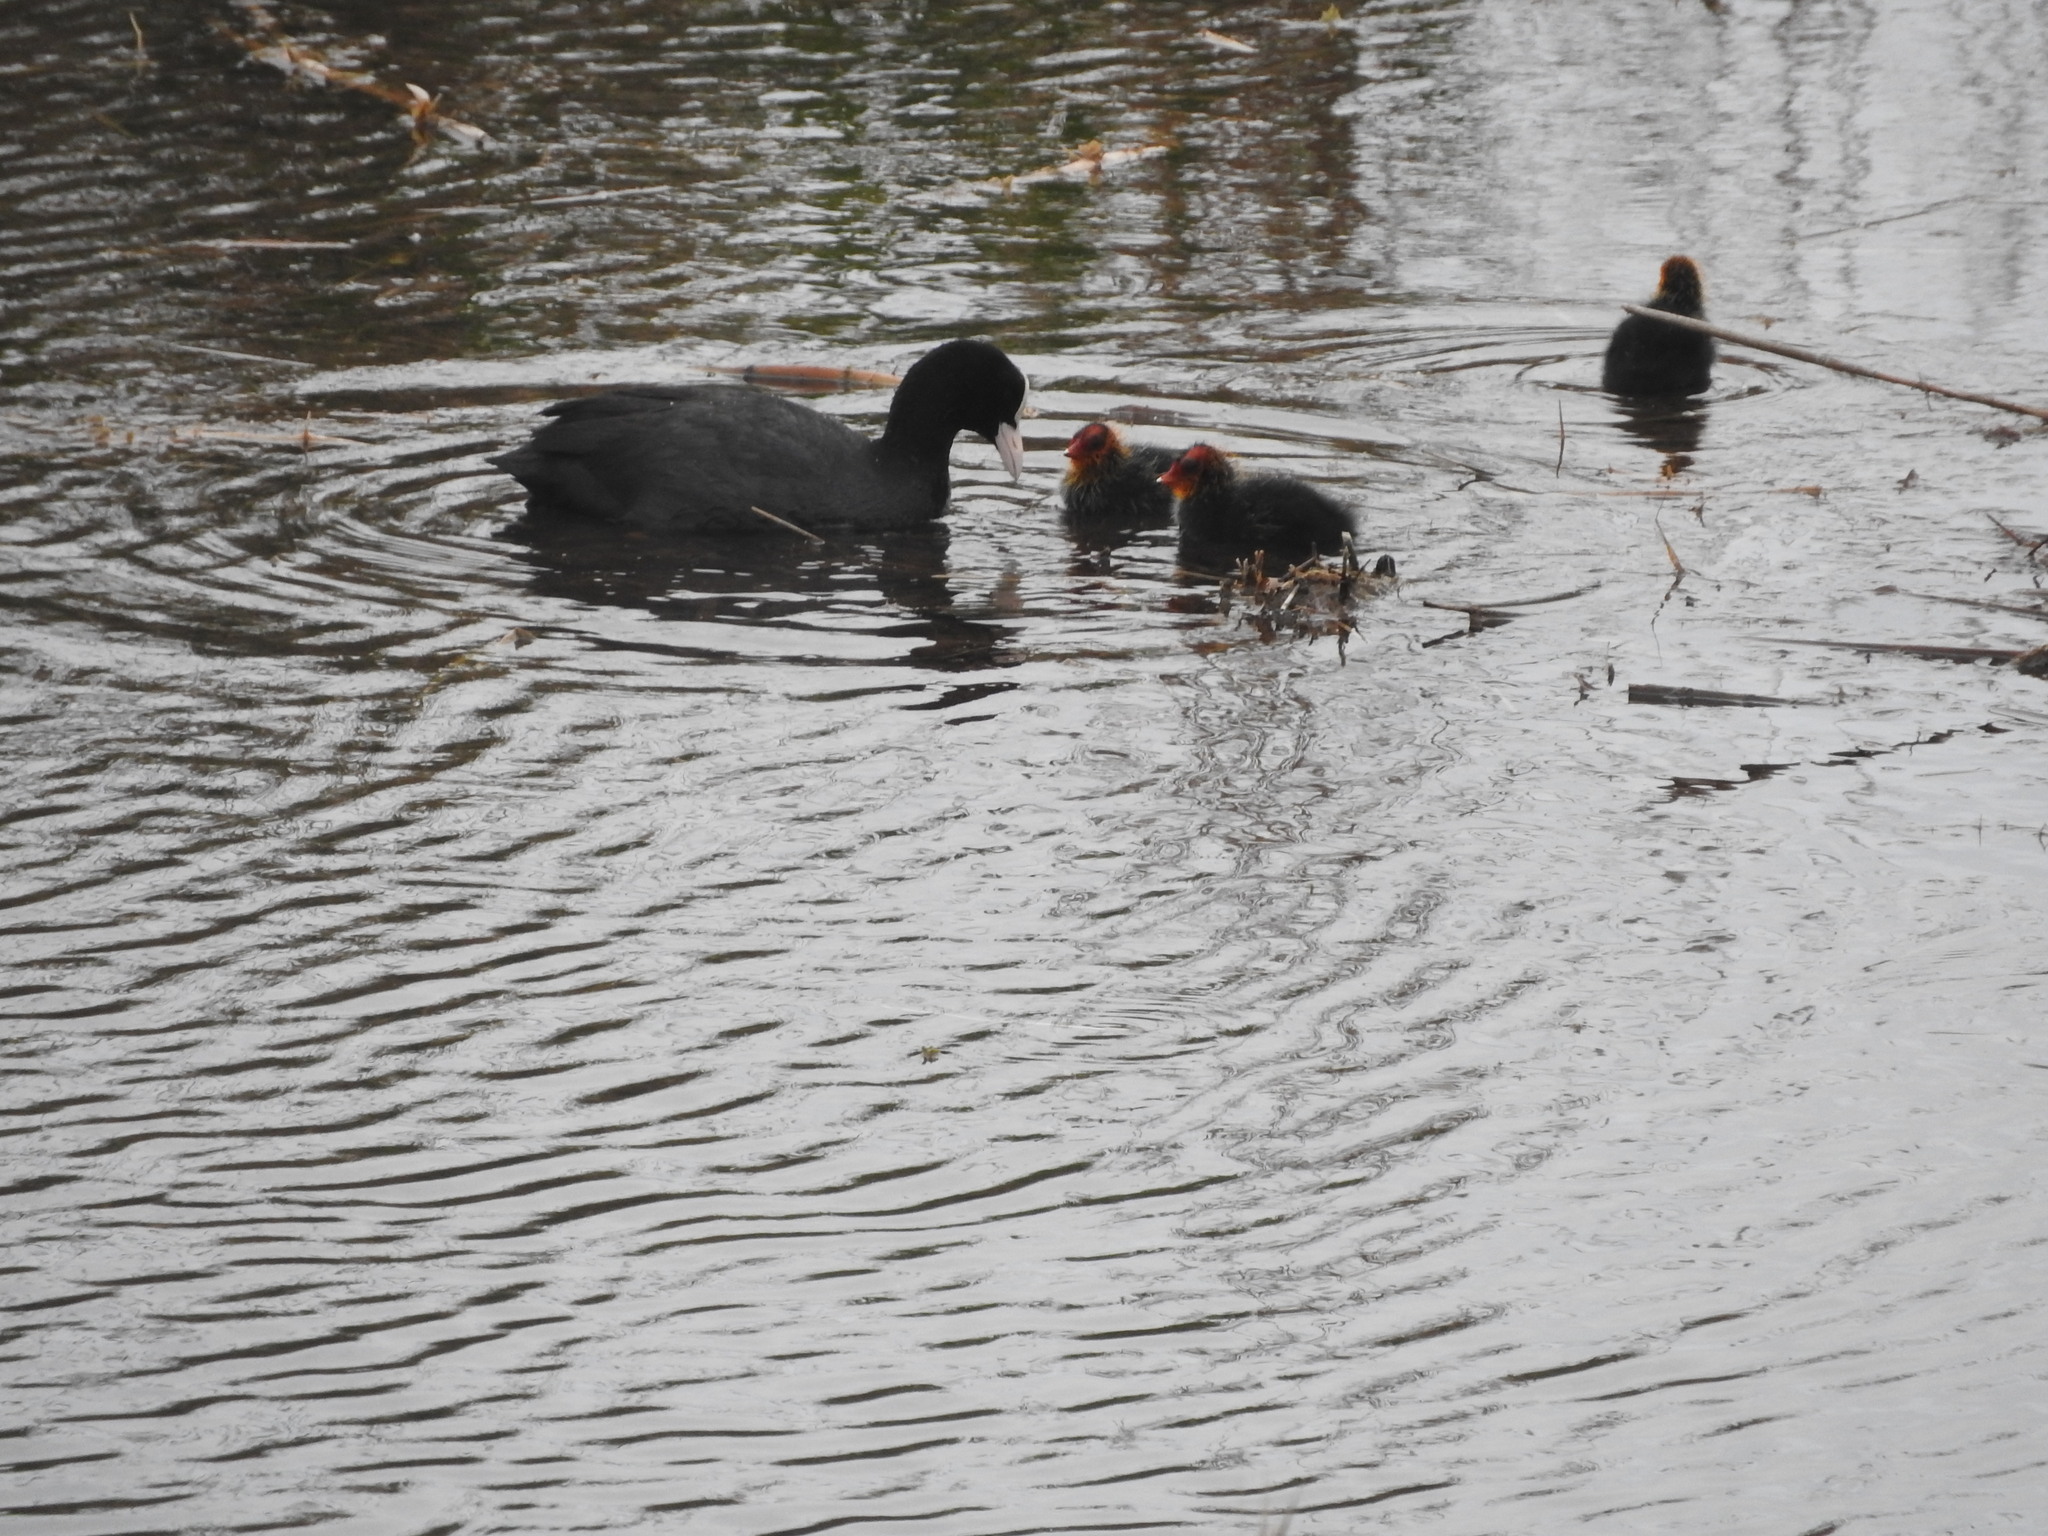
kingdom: Animalia
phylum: Chordata
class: Aves
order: Gruiformes
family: Rallidae
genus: Fulica
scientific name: Fulica atra
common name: Eurasian coot
